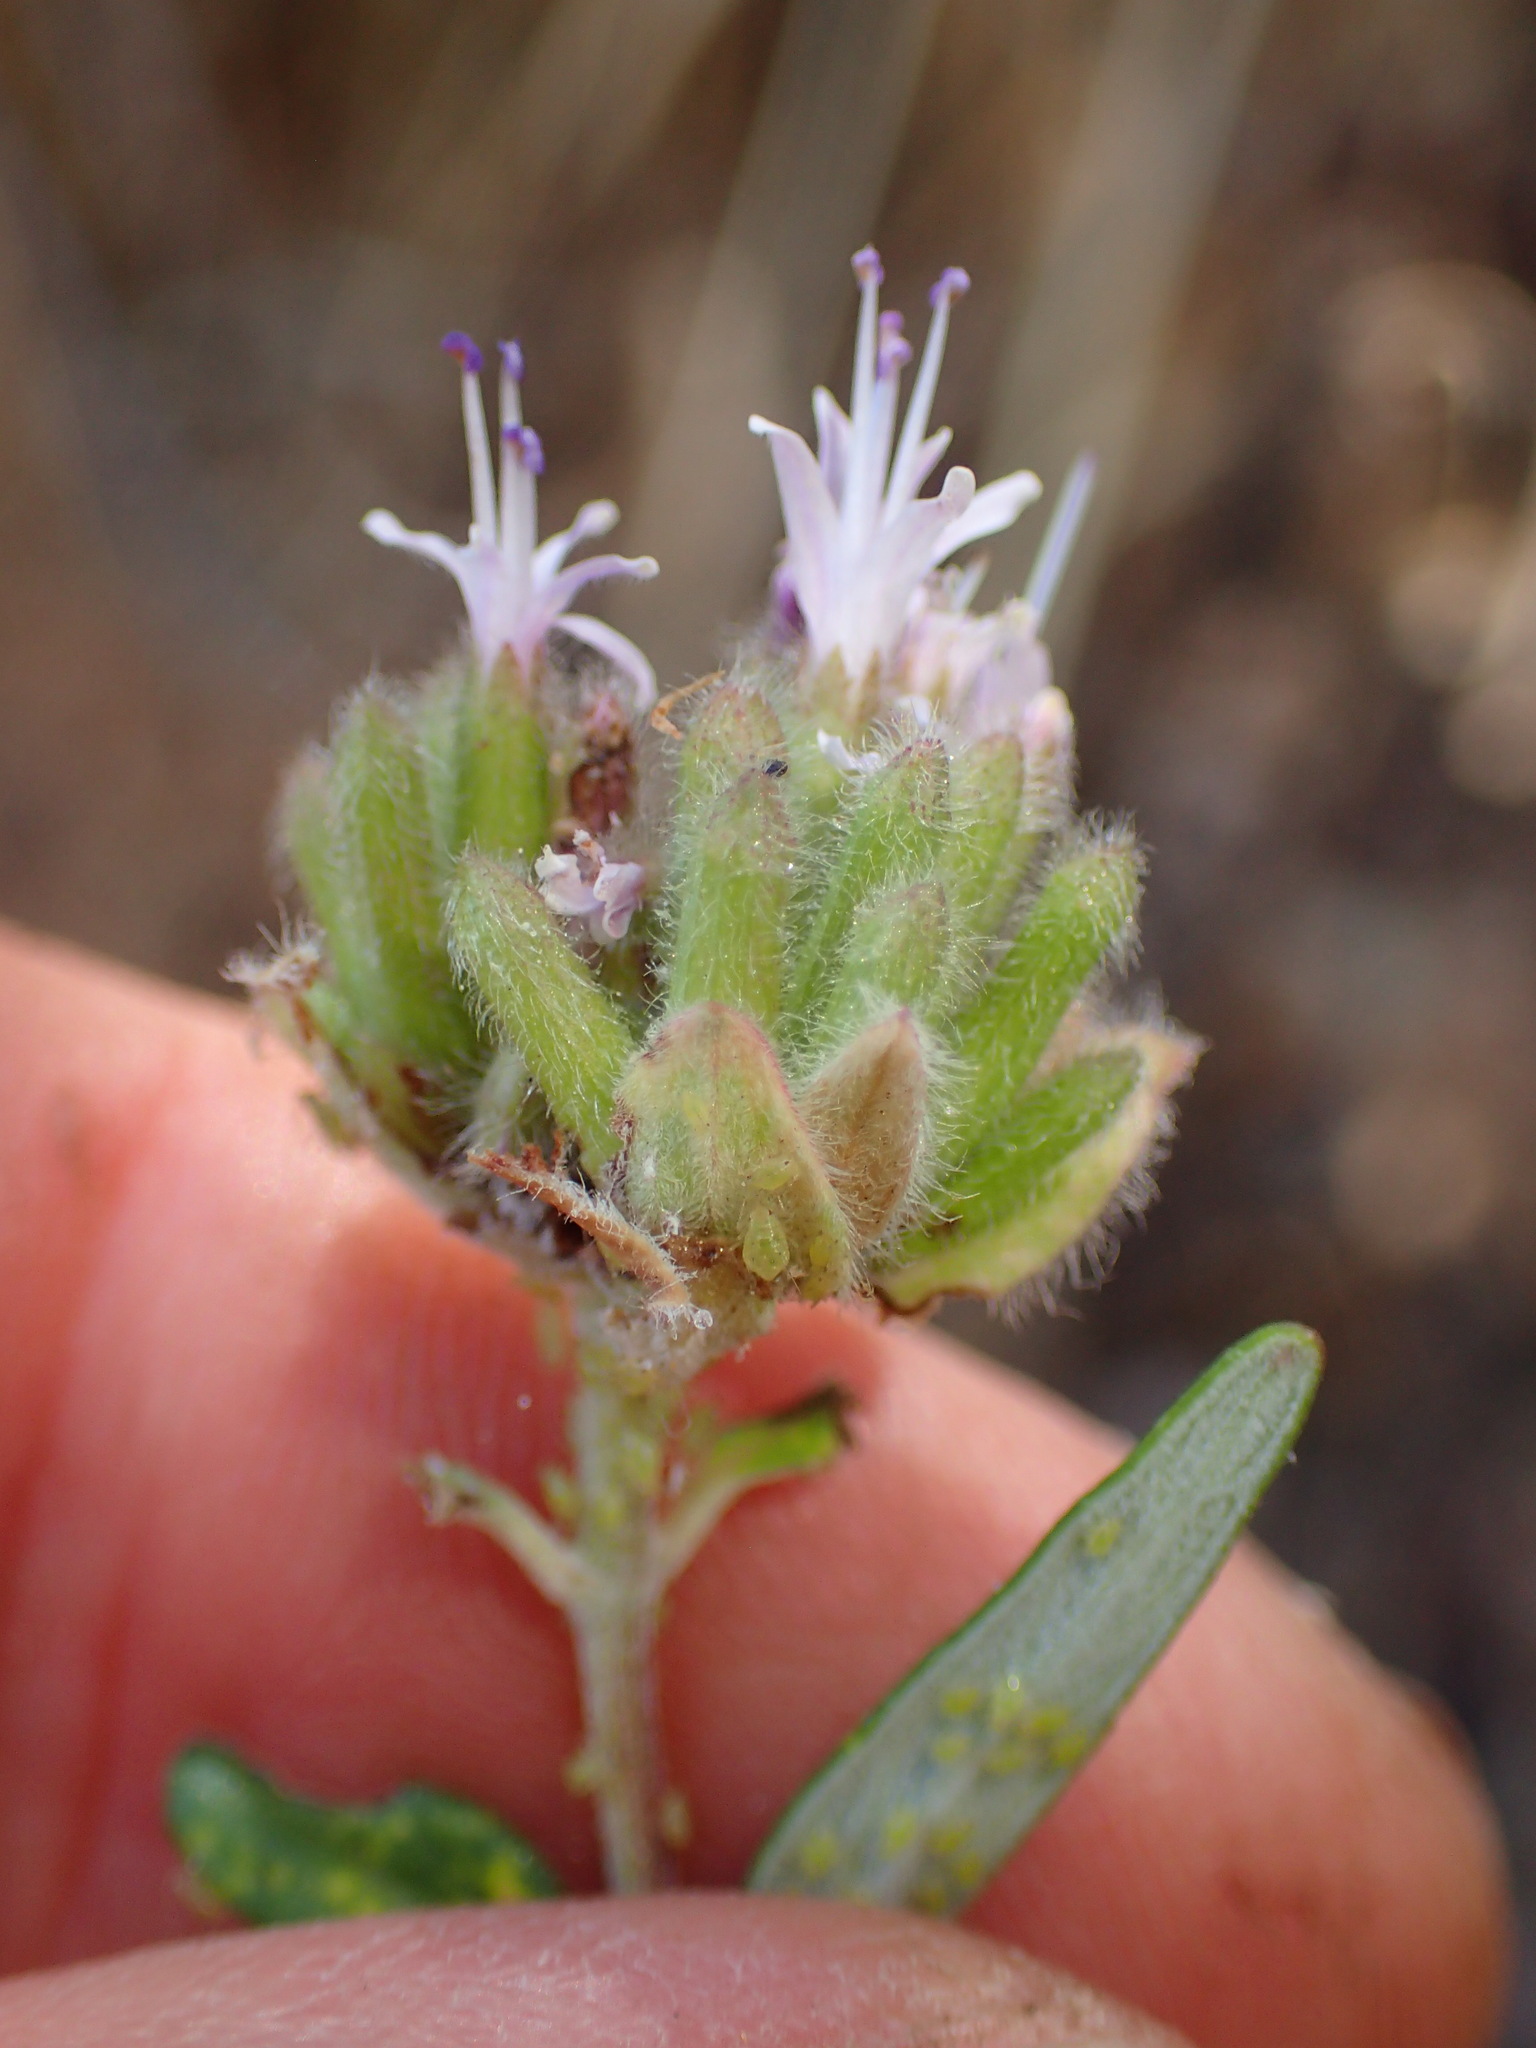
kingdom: Plantae
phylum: Tracheophyta
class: Magnoliopsida
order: Lamiales
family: Lamiaceae
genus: Monardella
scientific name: Monardella hypoleuca
